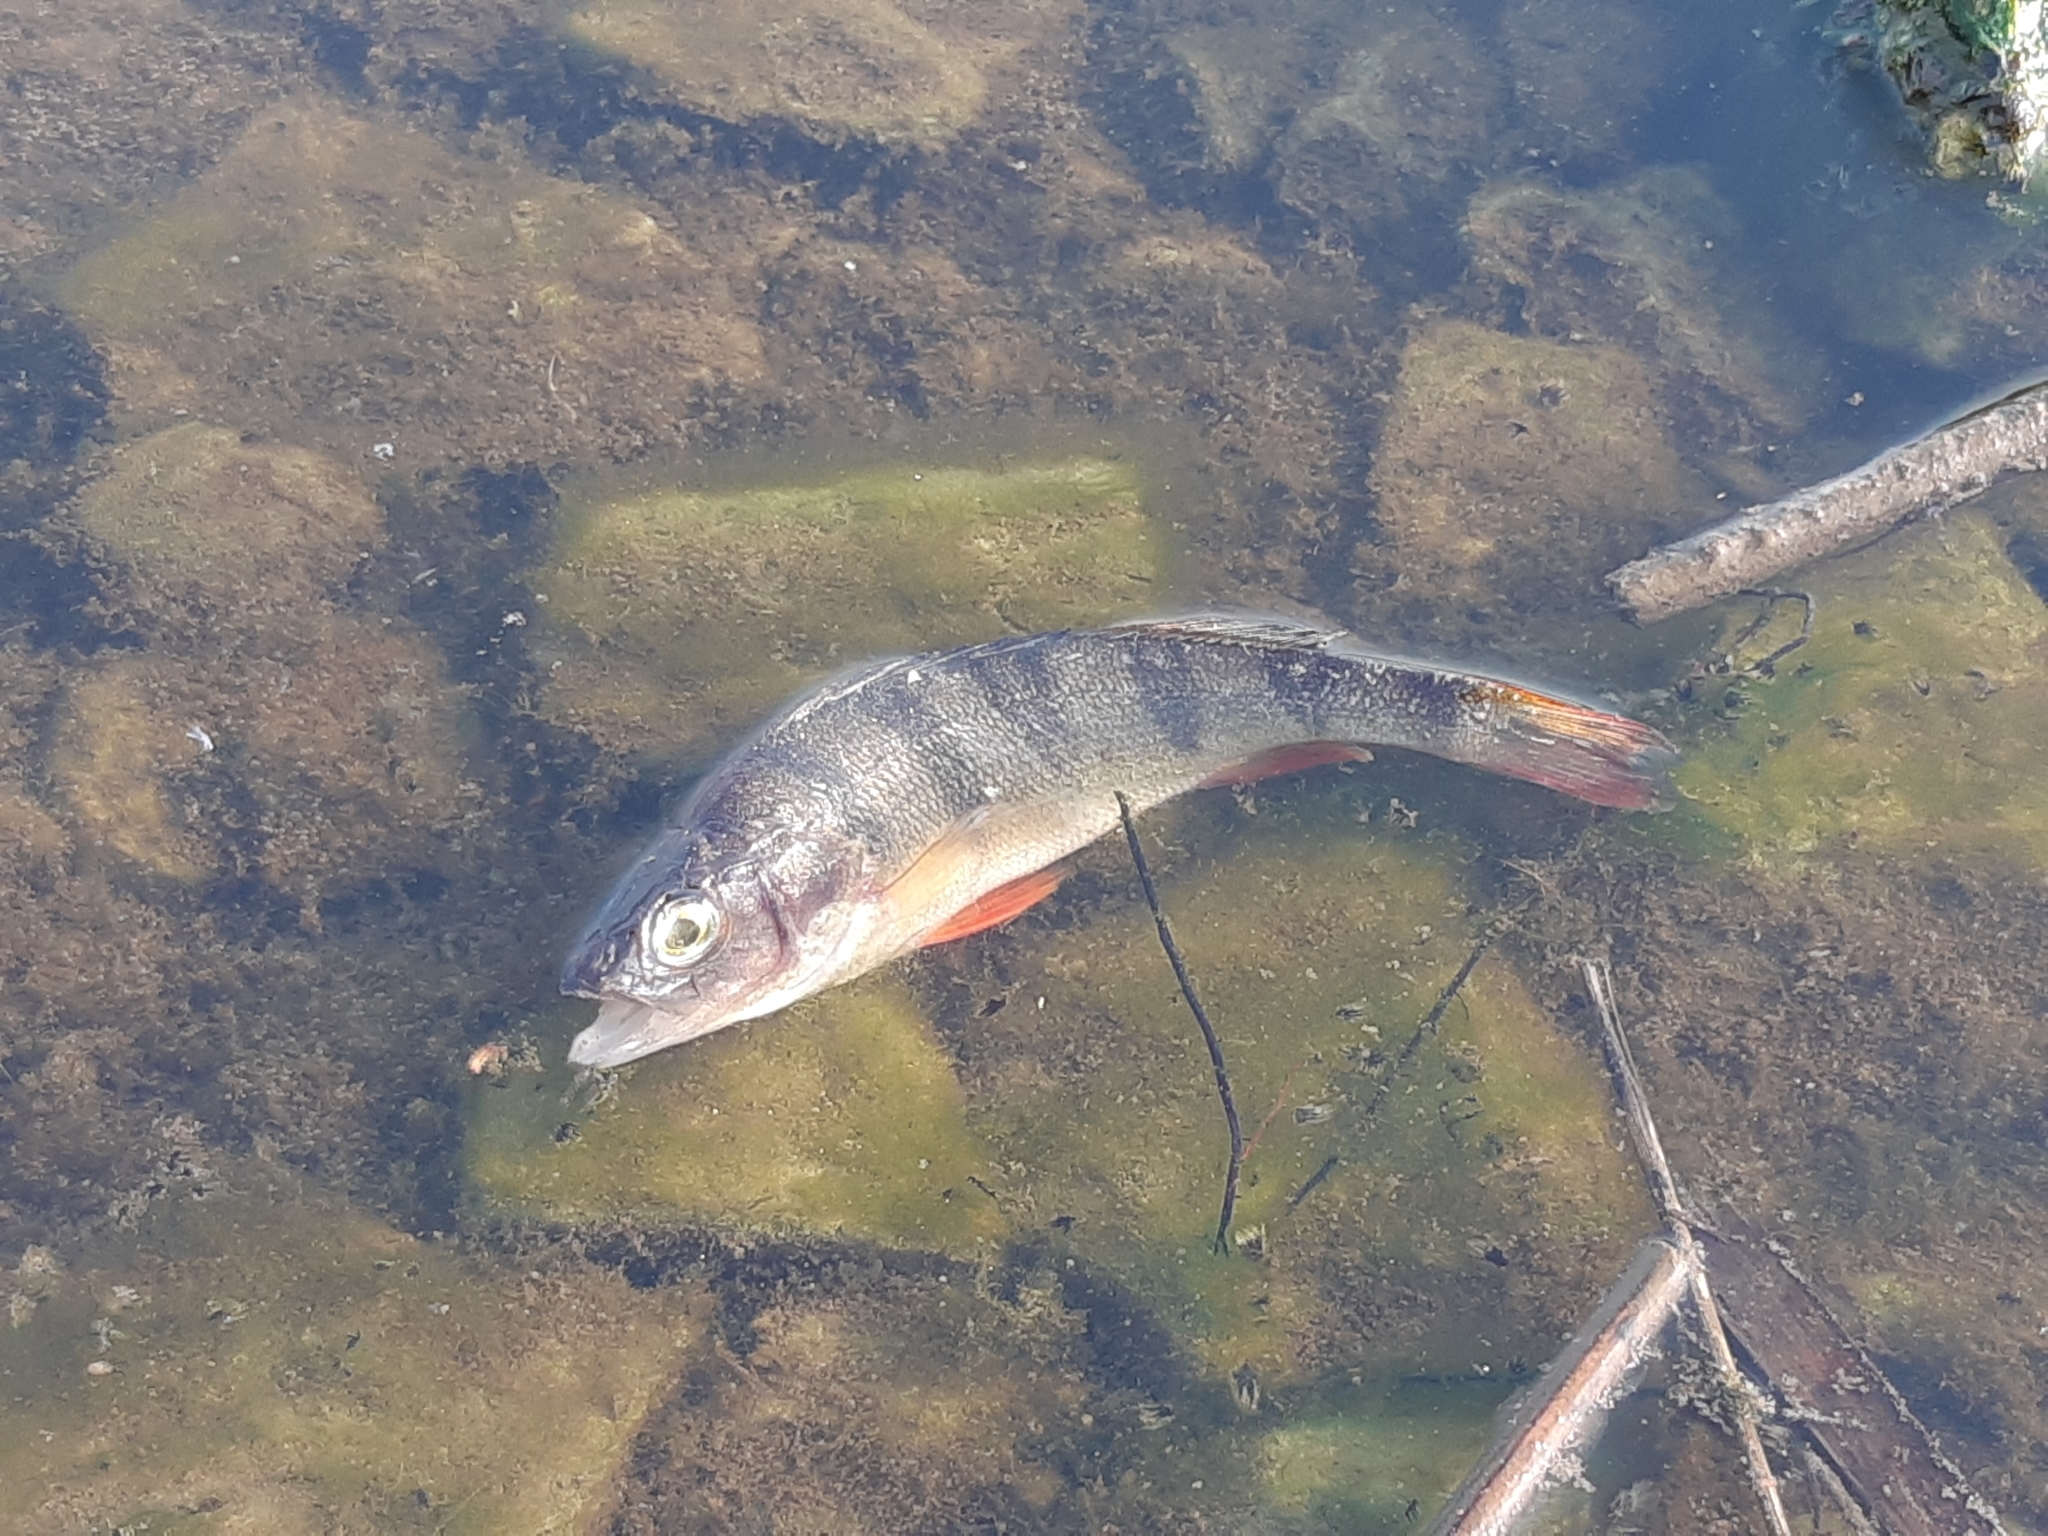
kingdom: Animalia
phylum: Chordata
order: Perciformes
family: Percidae
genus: Perca
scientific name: Perca fluviatilis
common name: Perch
